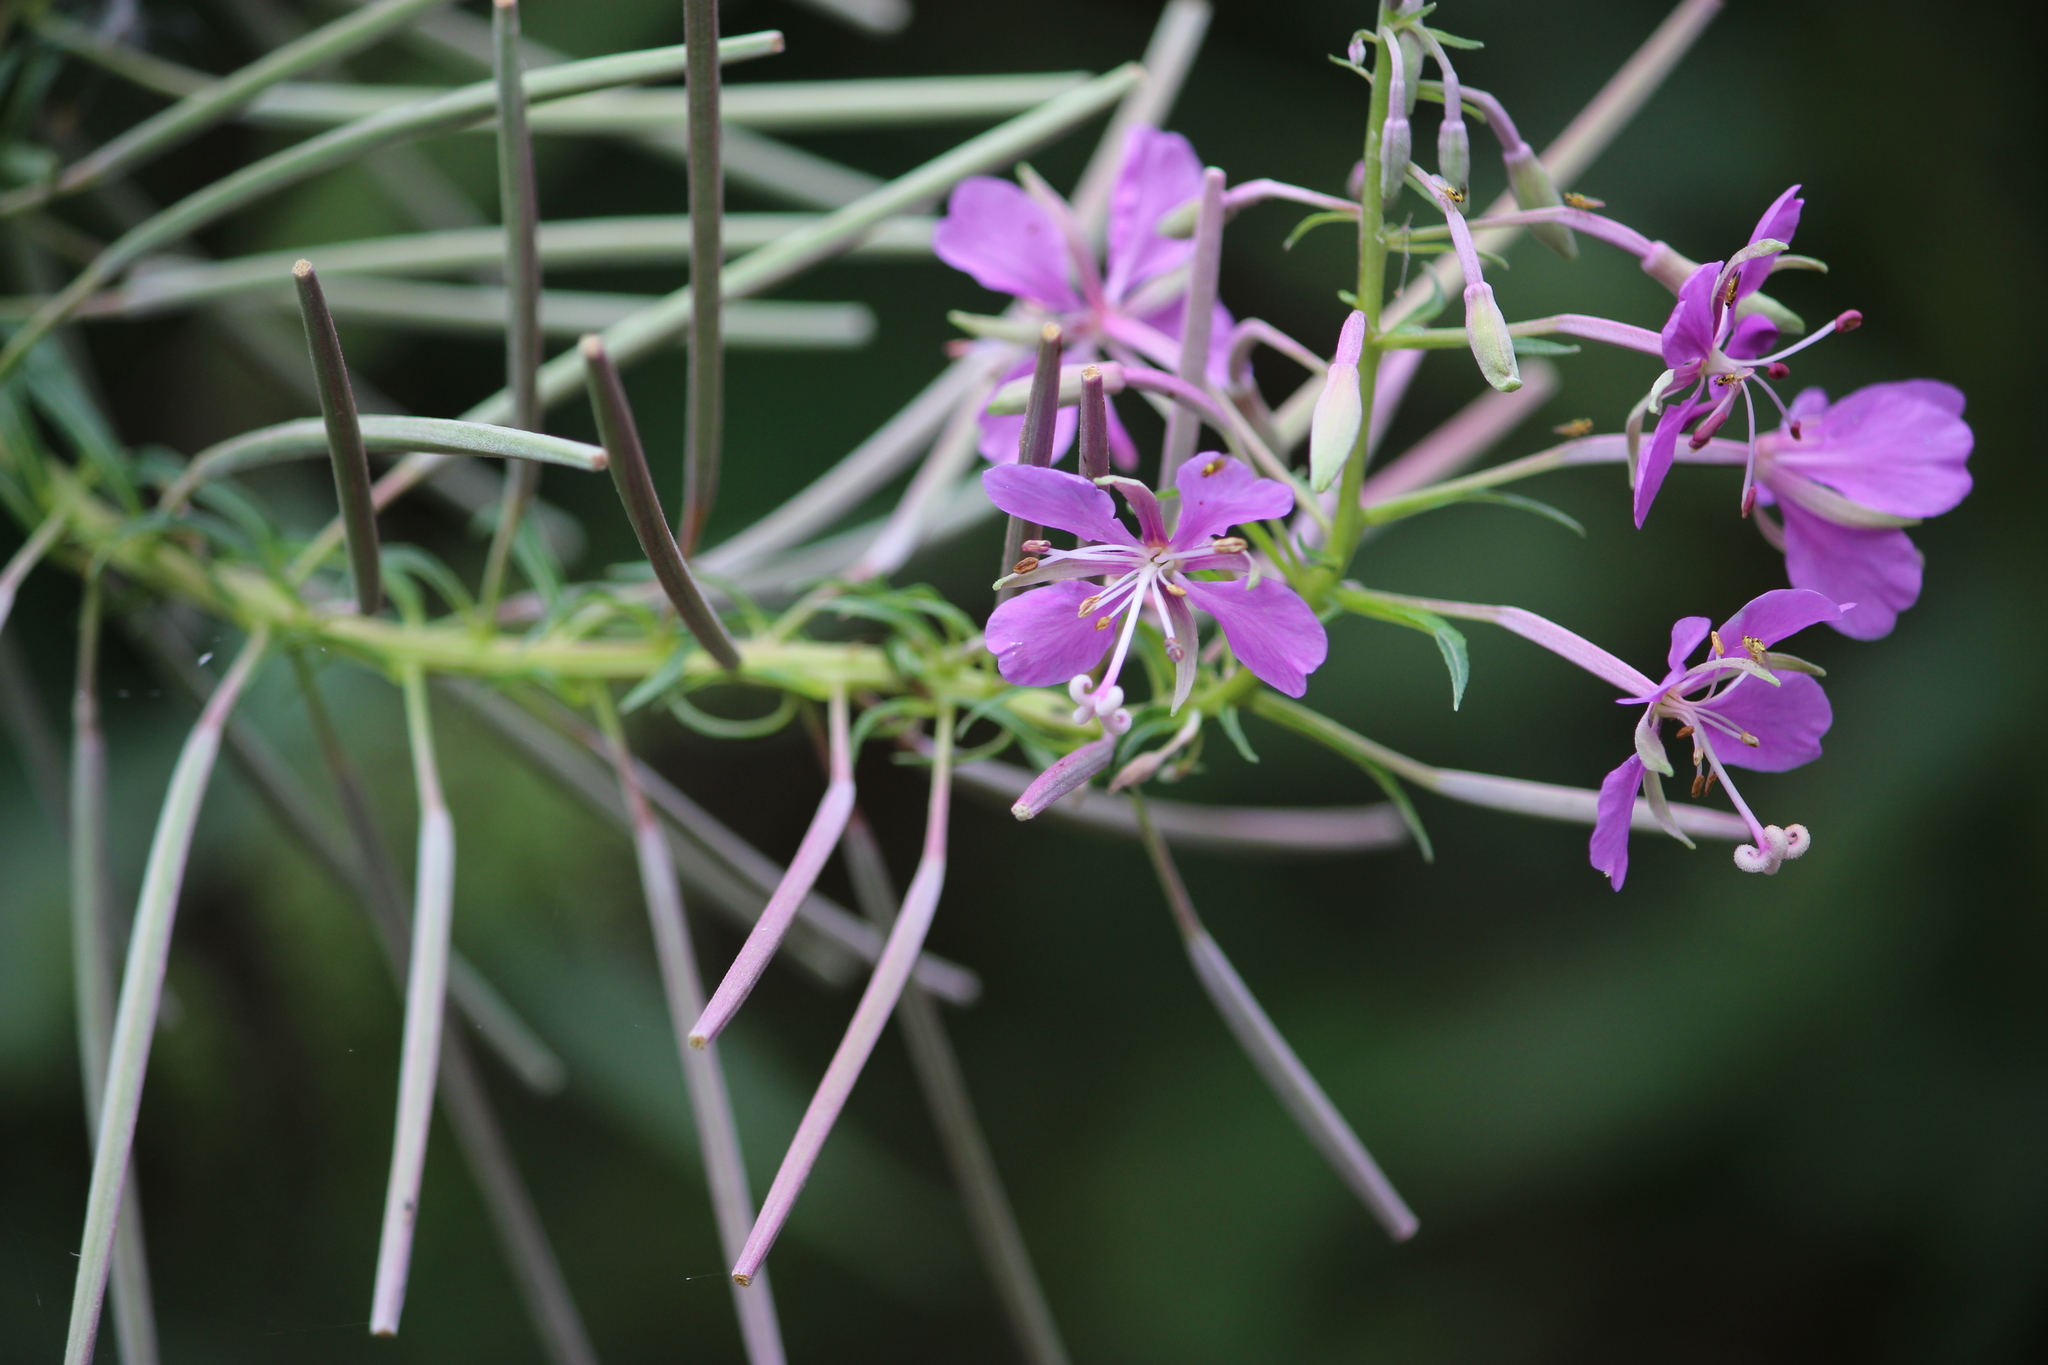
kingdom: Plantae
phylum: Tracheophyta
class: Magnoliopsida
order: Myrtales
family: Onagraceae
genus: Chamaenerion
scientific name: Chamaenerion angustifolium
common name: Fireweed
